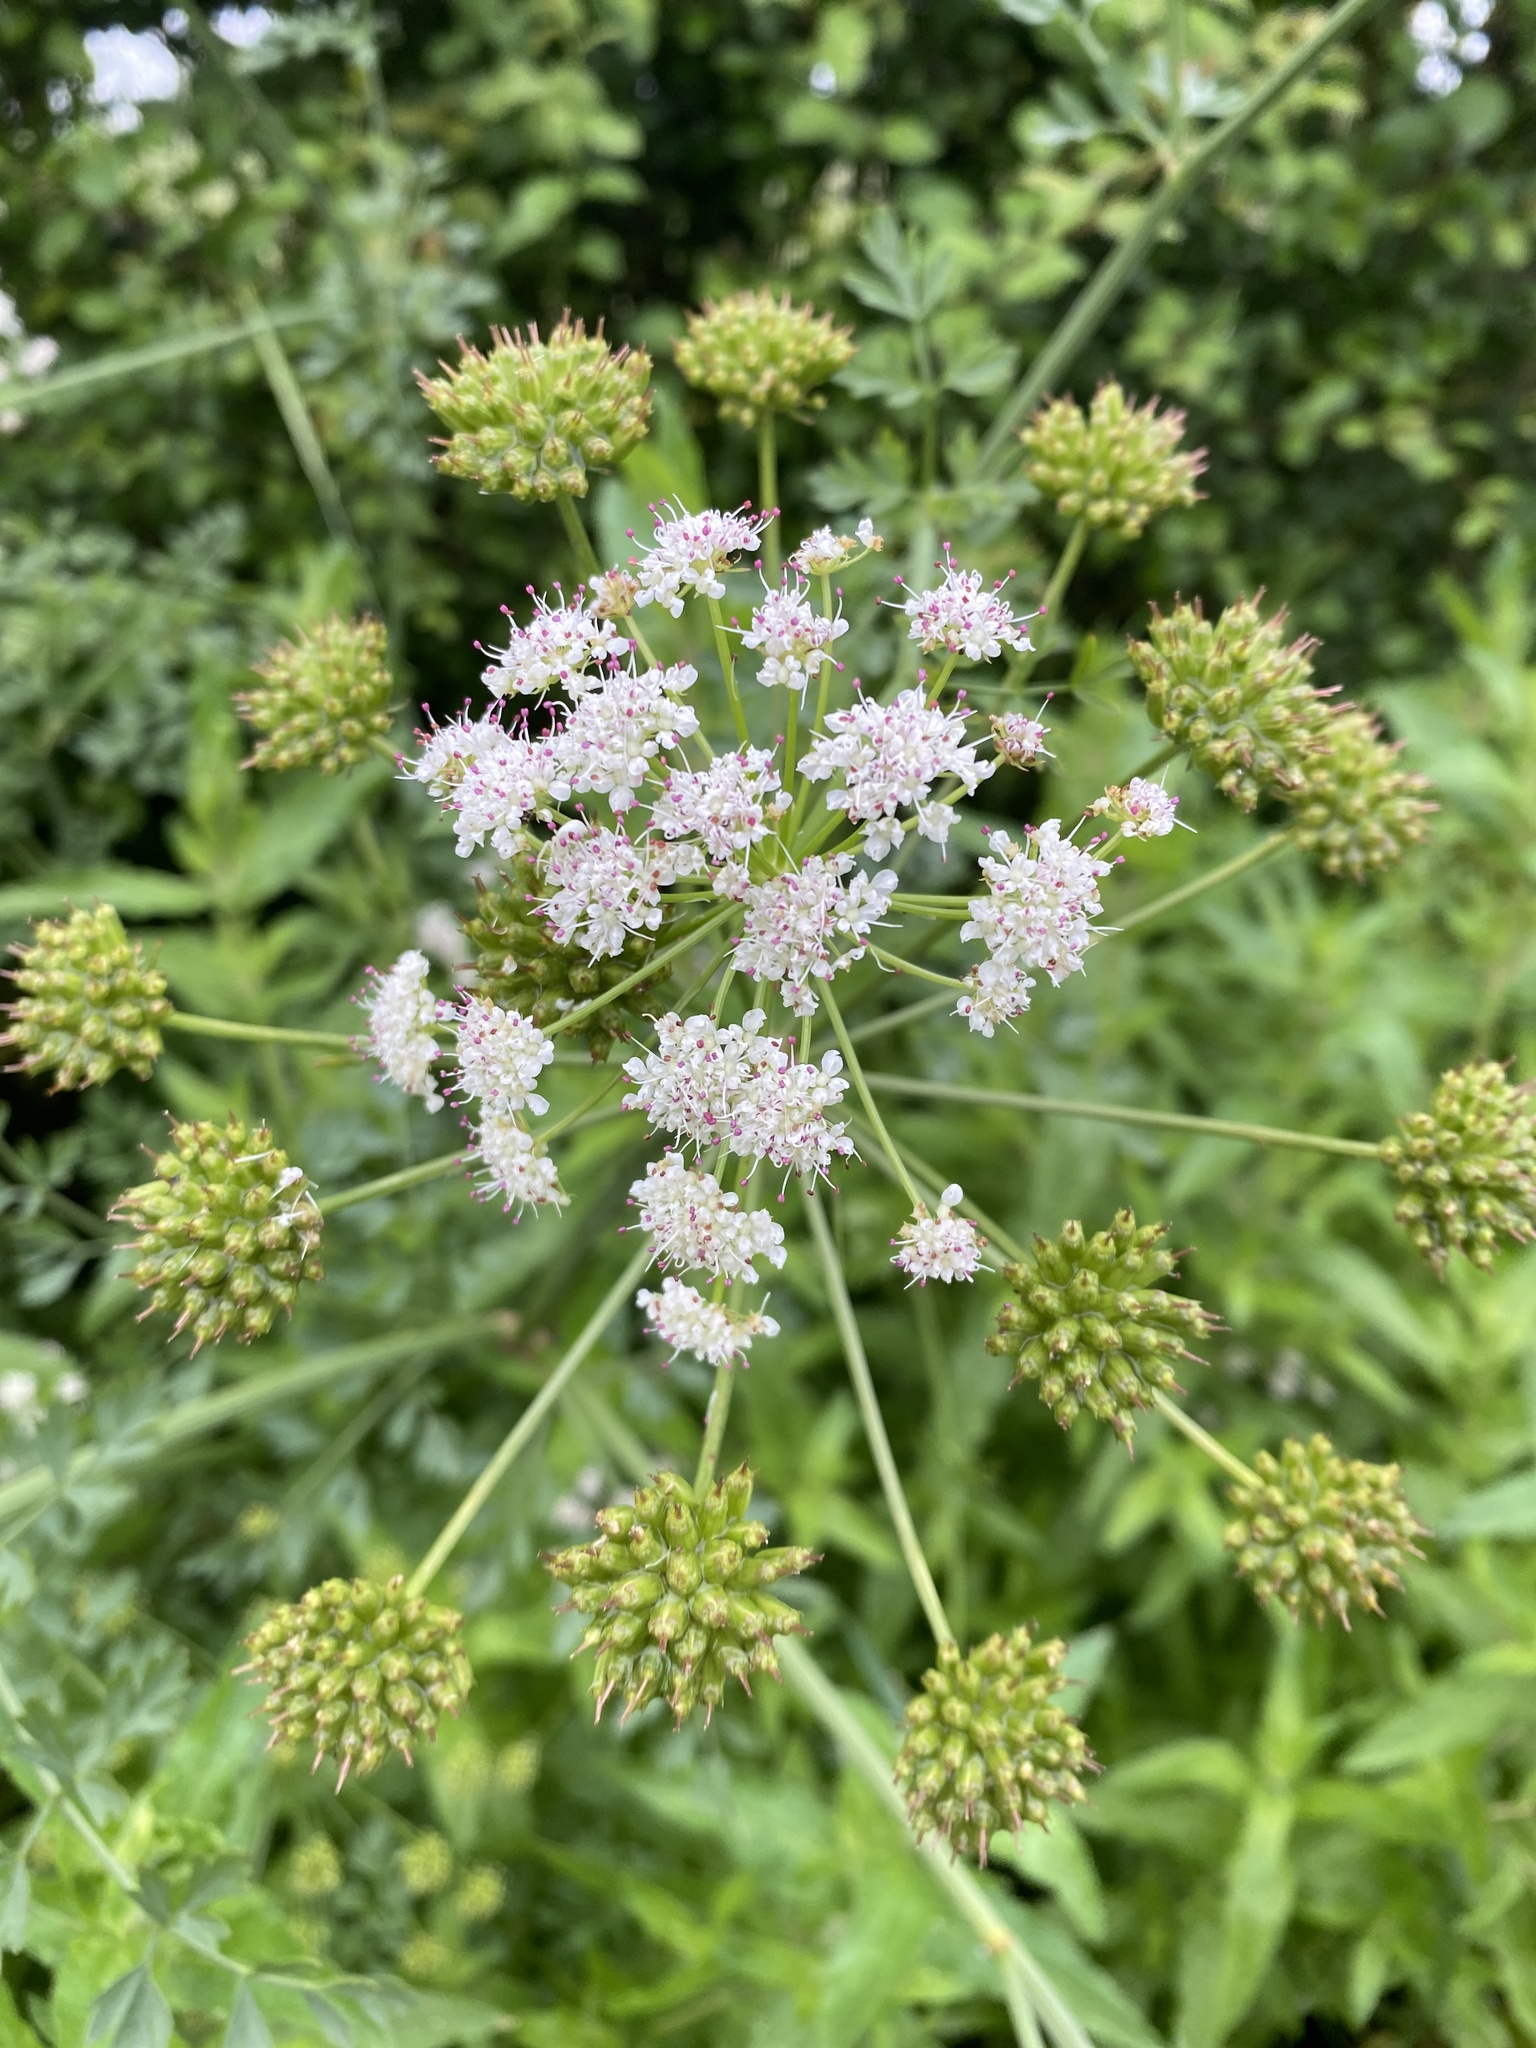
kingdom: Plantae
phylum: Tracheophyta
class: Magnoliopsida
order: Apiales
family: Apiaceae
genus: Oenanthe
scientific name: Oenanthe crocata
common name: Hemlock water-dropwort
